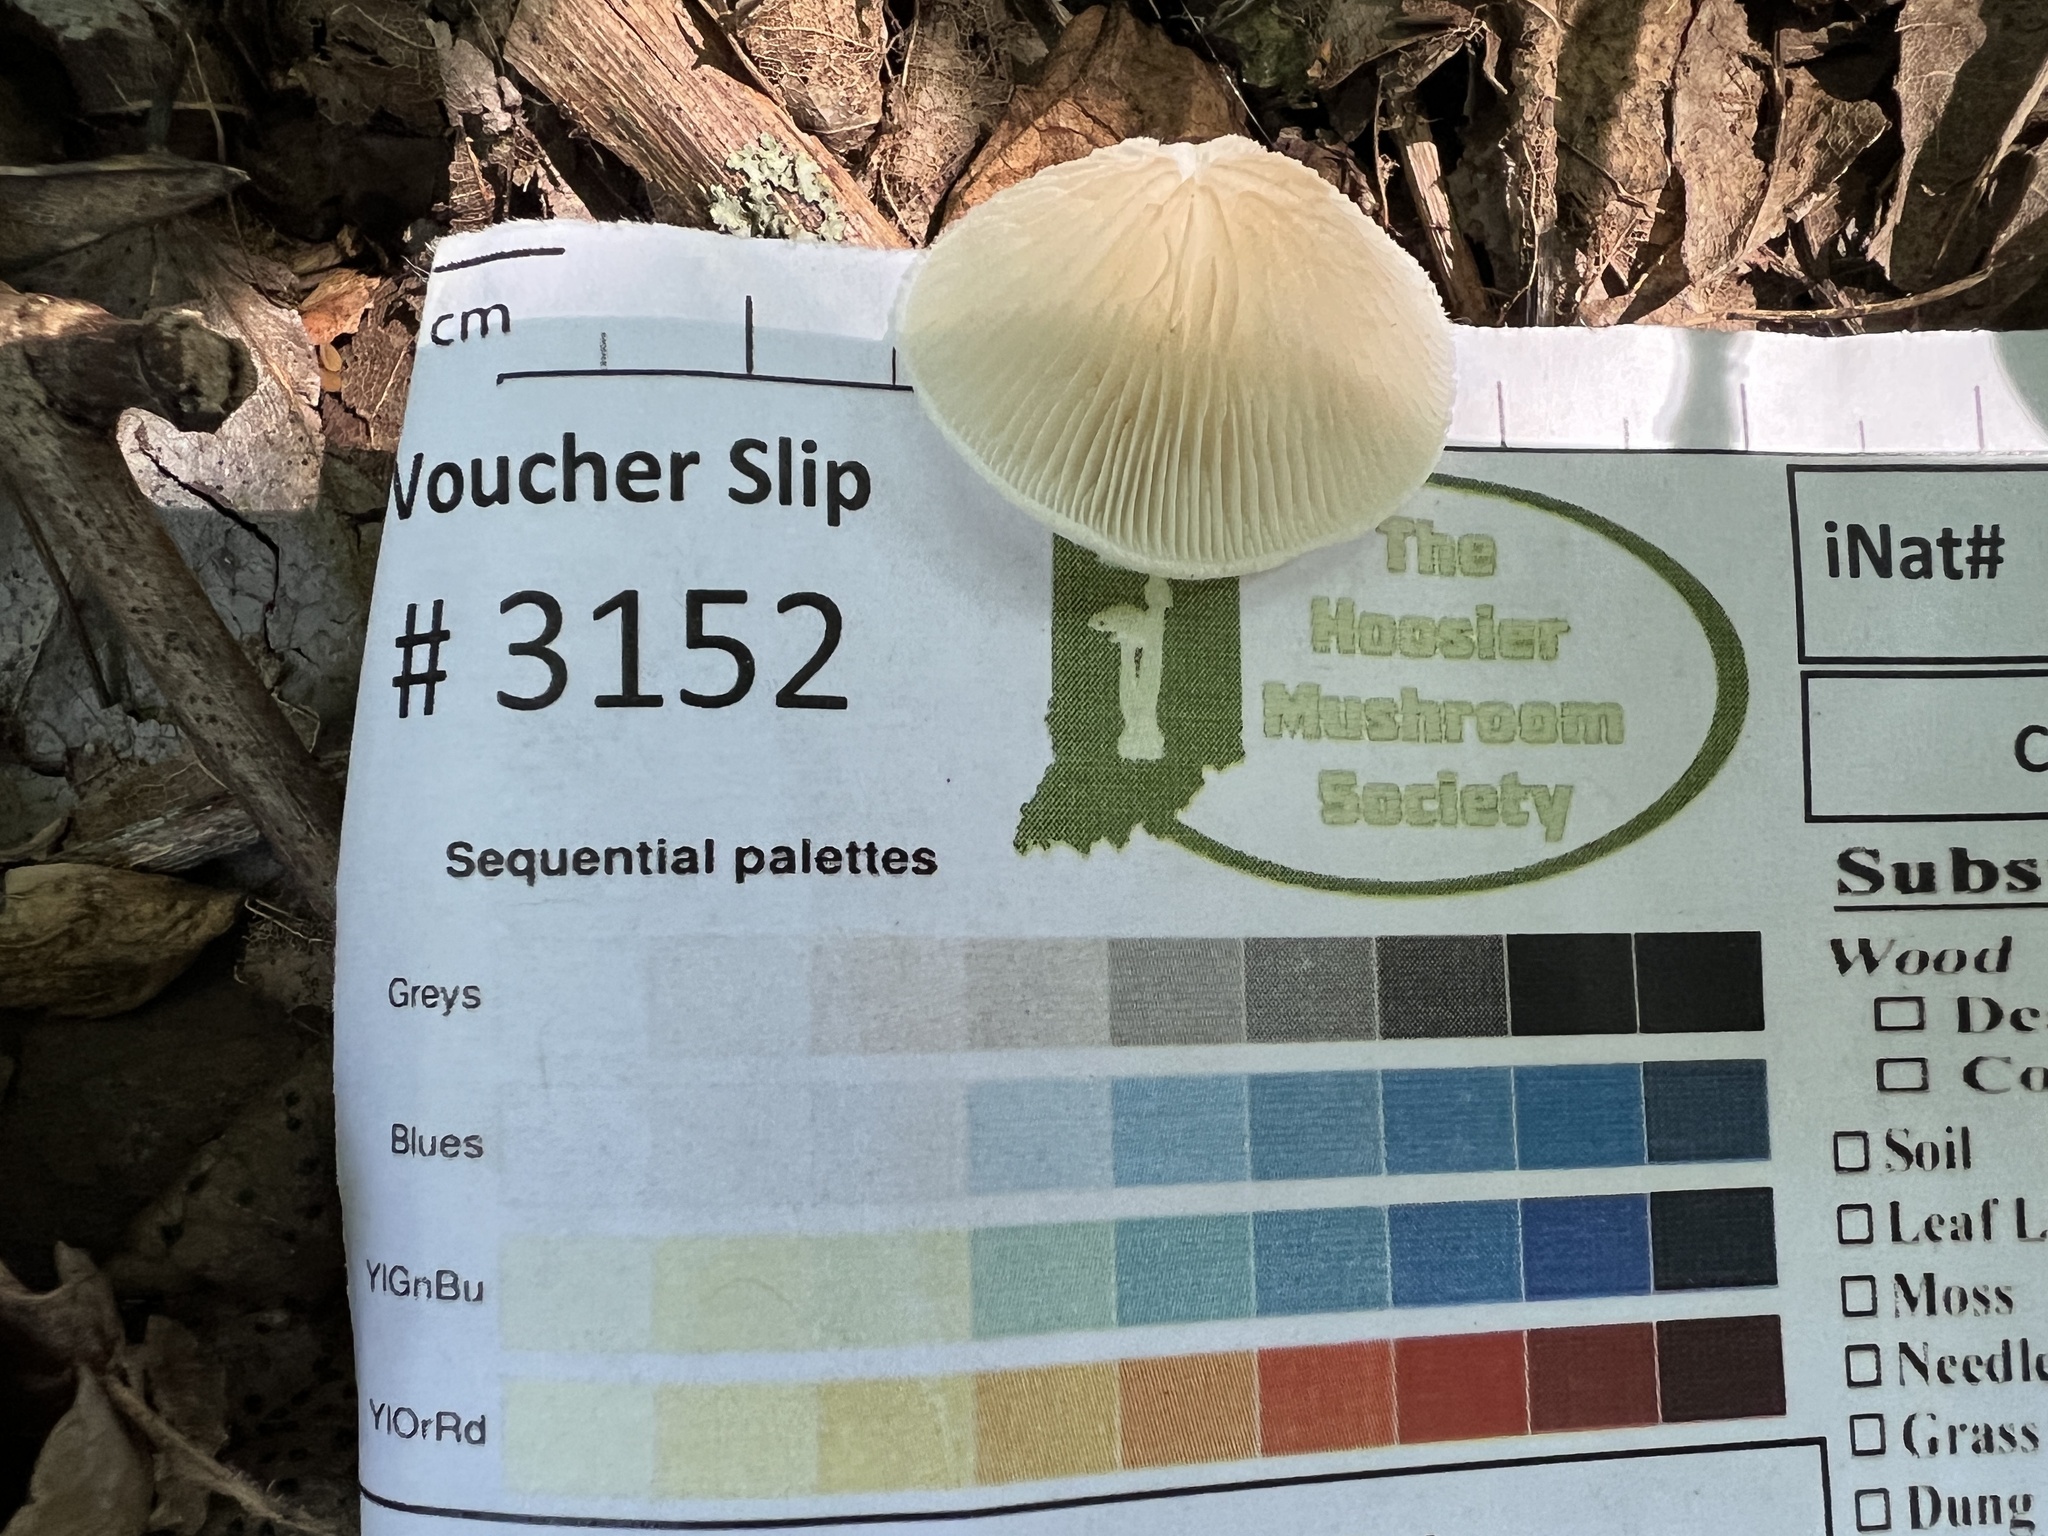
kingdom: Fungi
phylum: Basidiomycota
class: Agaricomycetes
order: Agaricales
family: Crepidotaceae
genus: Crepidotus
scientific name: Crepidotus albissimus
